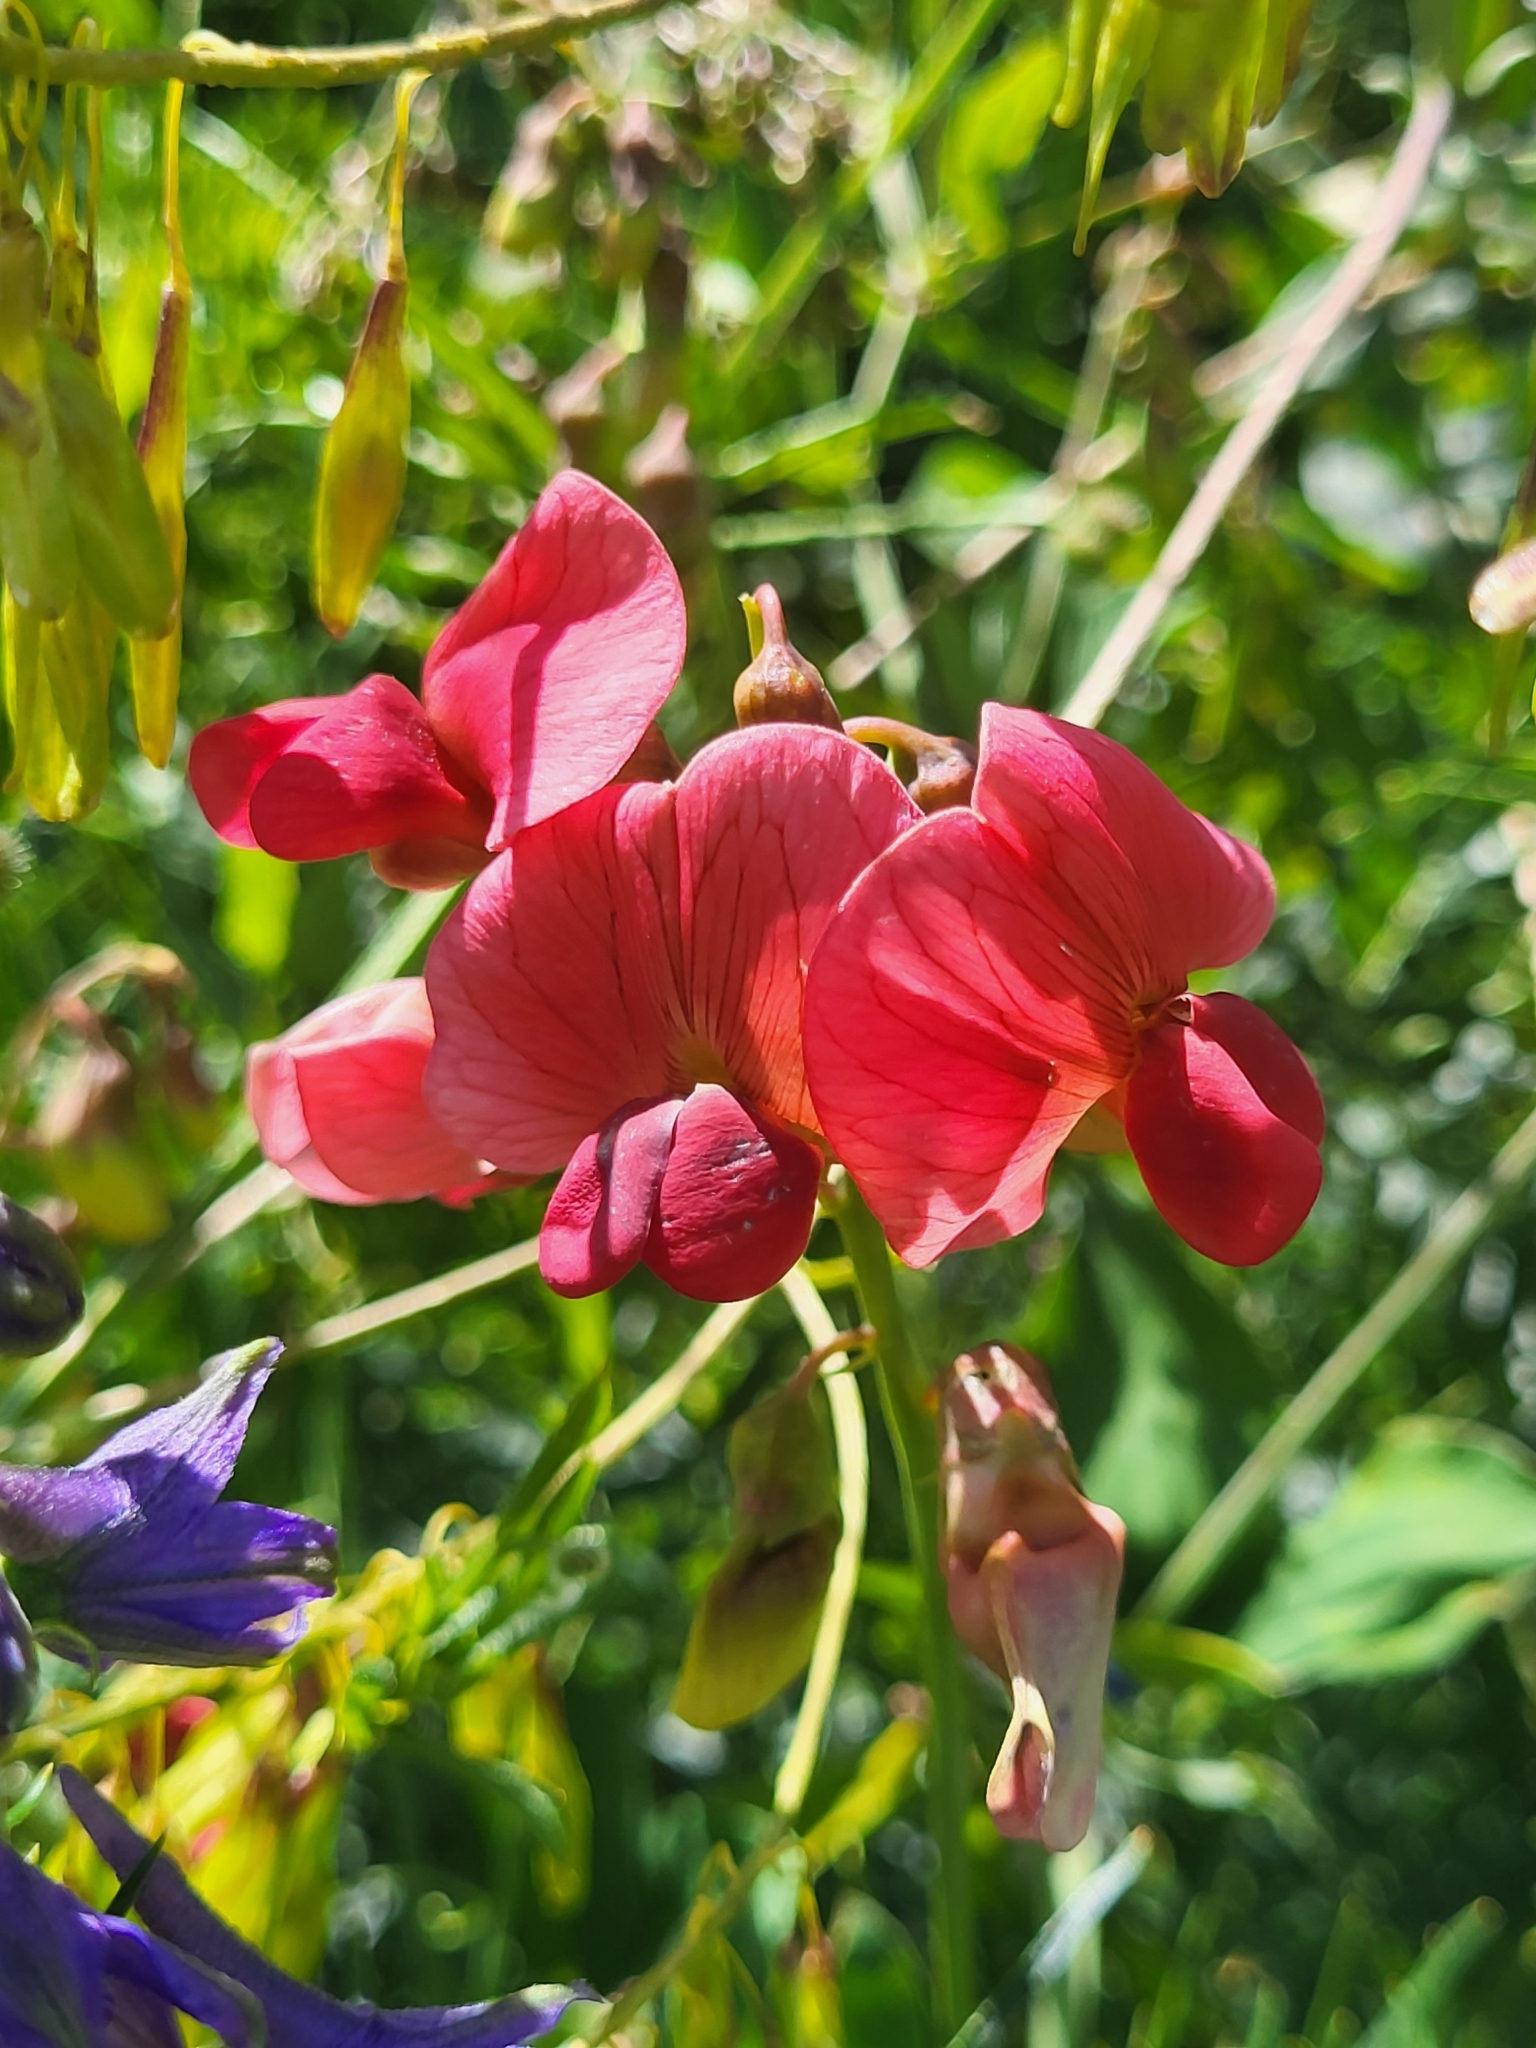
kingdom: Plantae
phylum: Tracheophyta
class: Magnoliopsida
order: Fabales
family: Fabaceae
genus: Lathyrus
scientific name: Lathyrus rotundifolius
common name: Round-leaf vetchling
